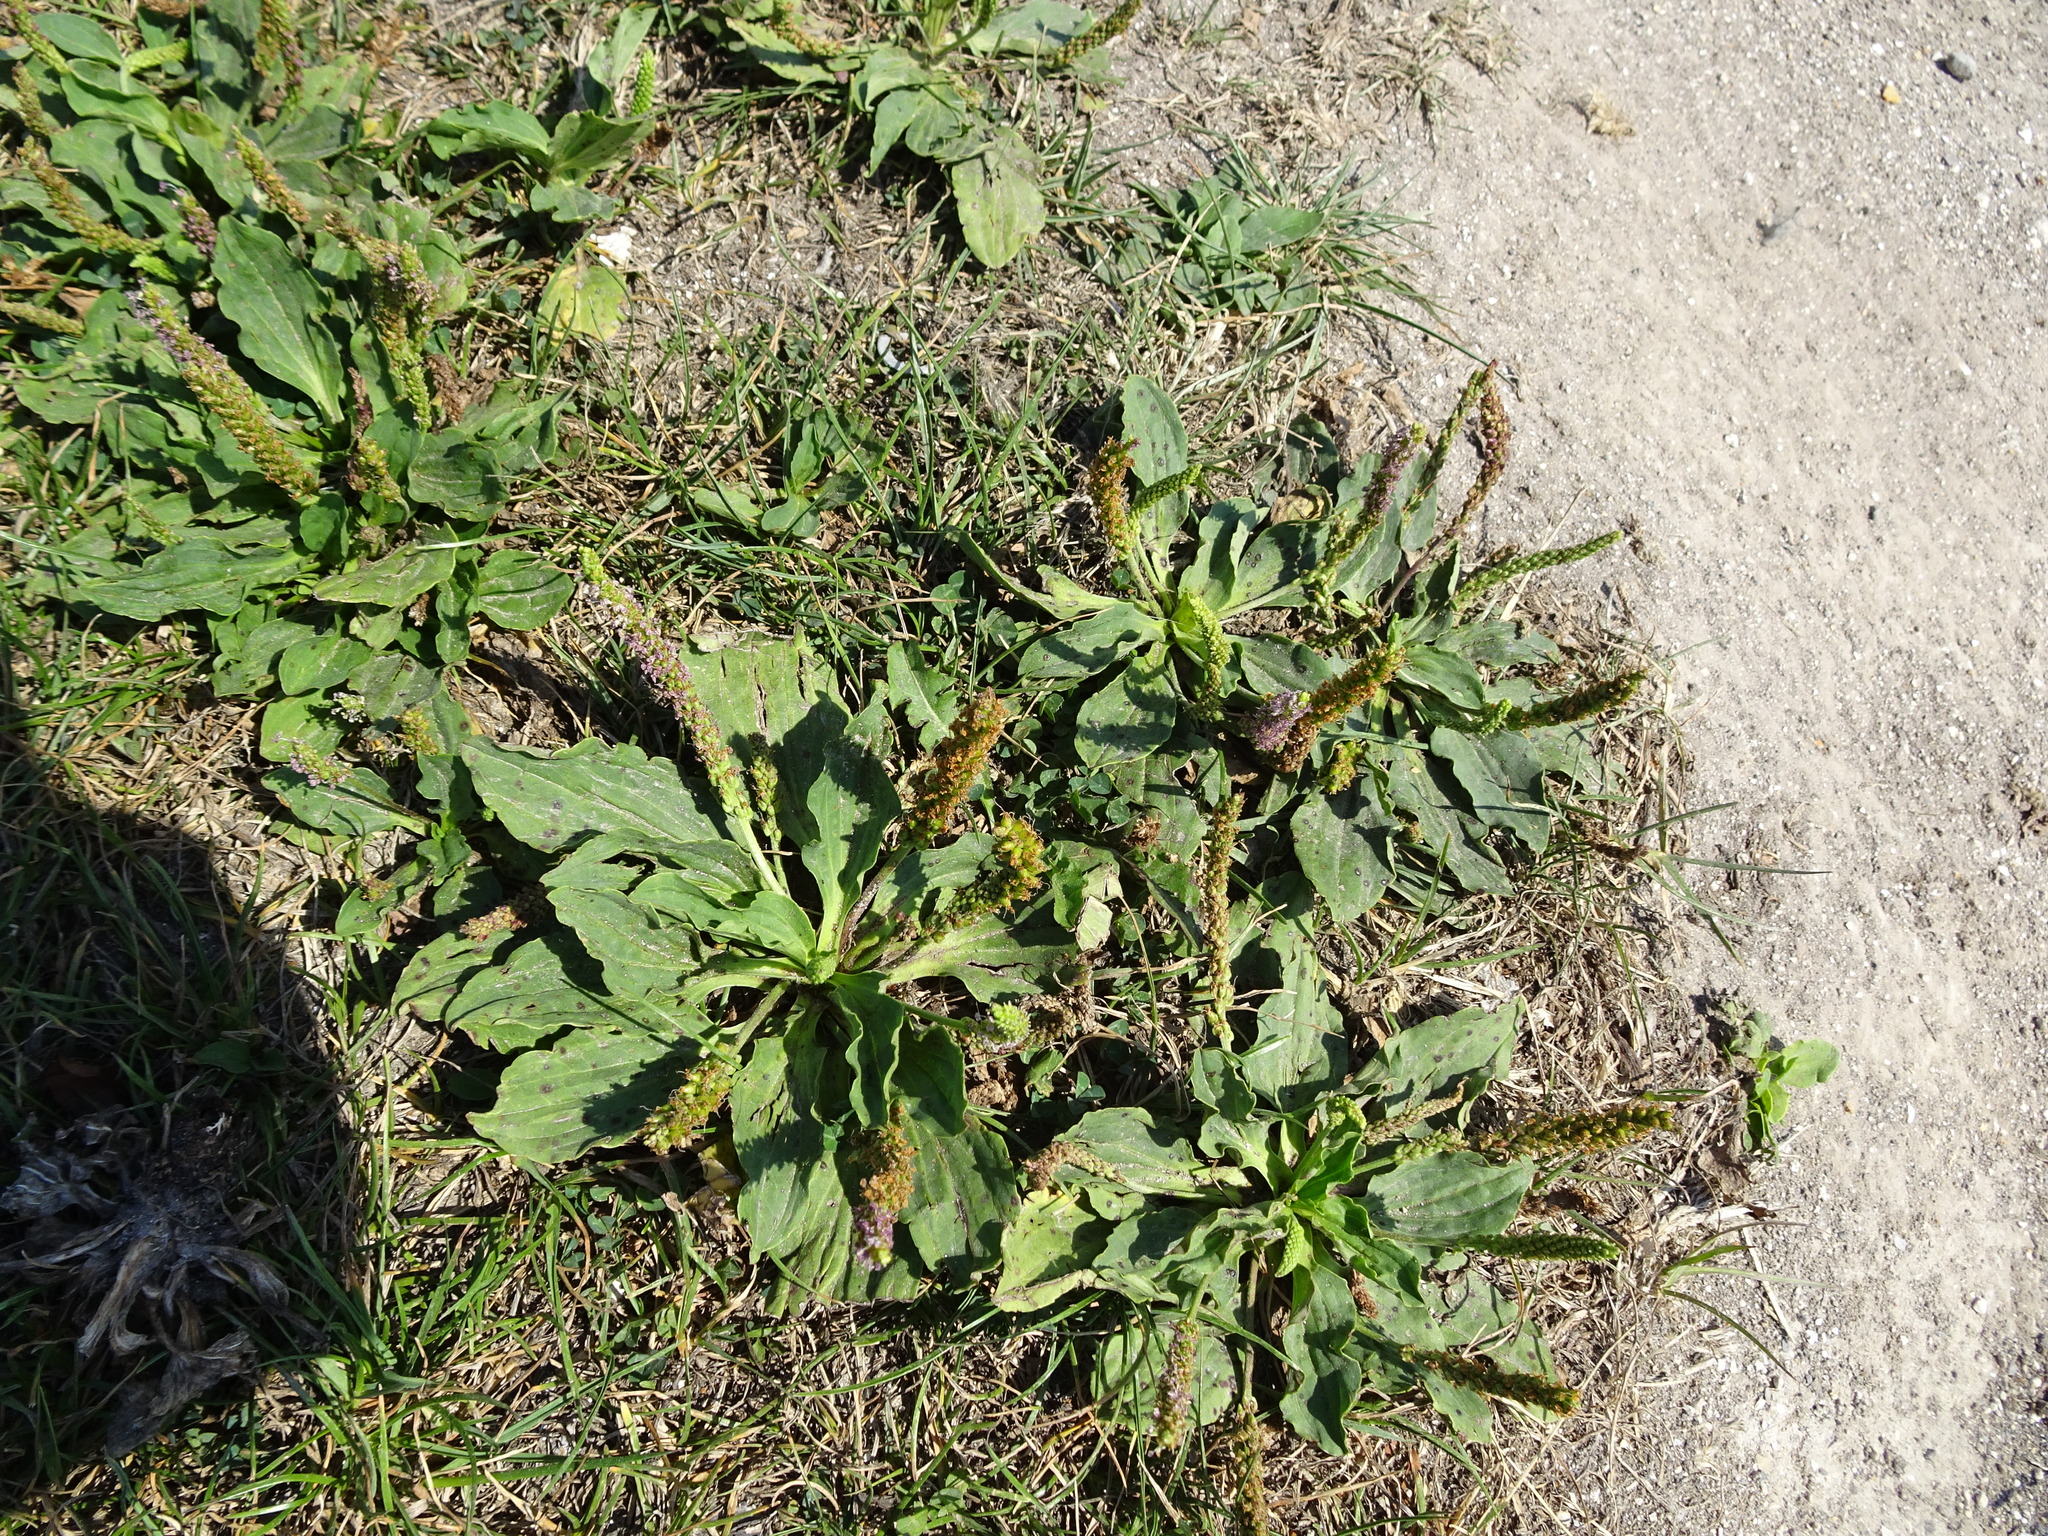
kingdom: Plantae
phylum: Tracheophyta
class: Magnoliopsida
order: Lamiales
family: Plantaginaceae
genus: Plantago
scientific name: Plantago major
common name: Common plantain
